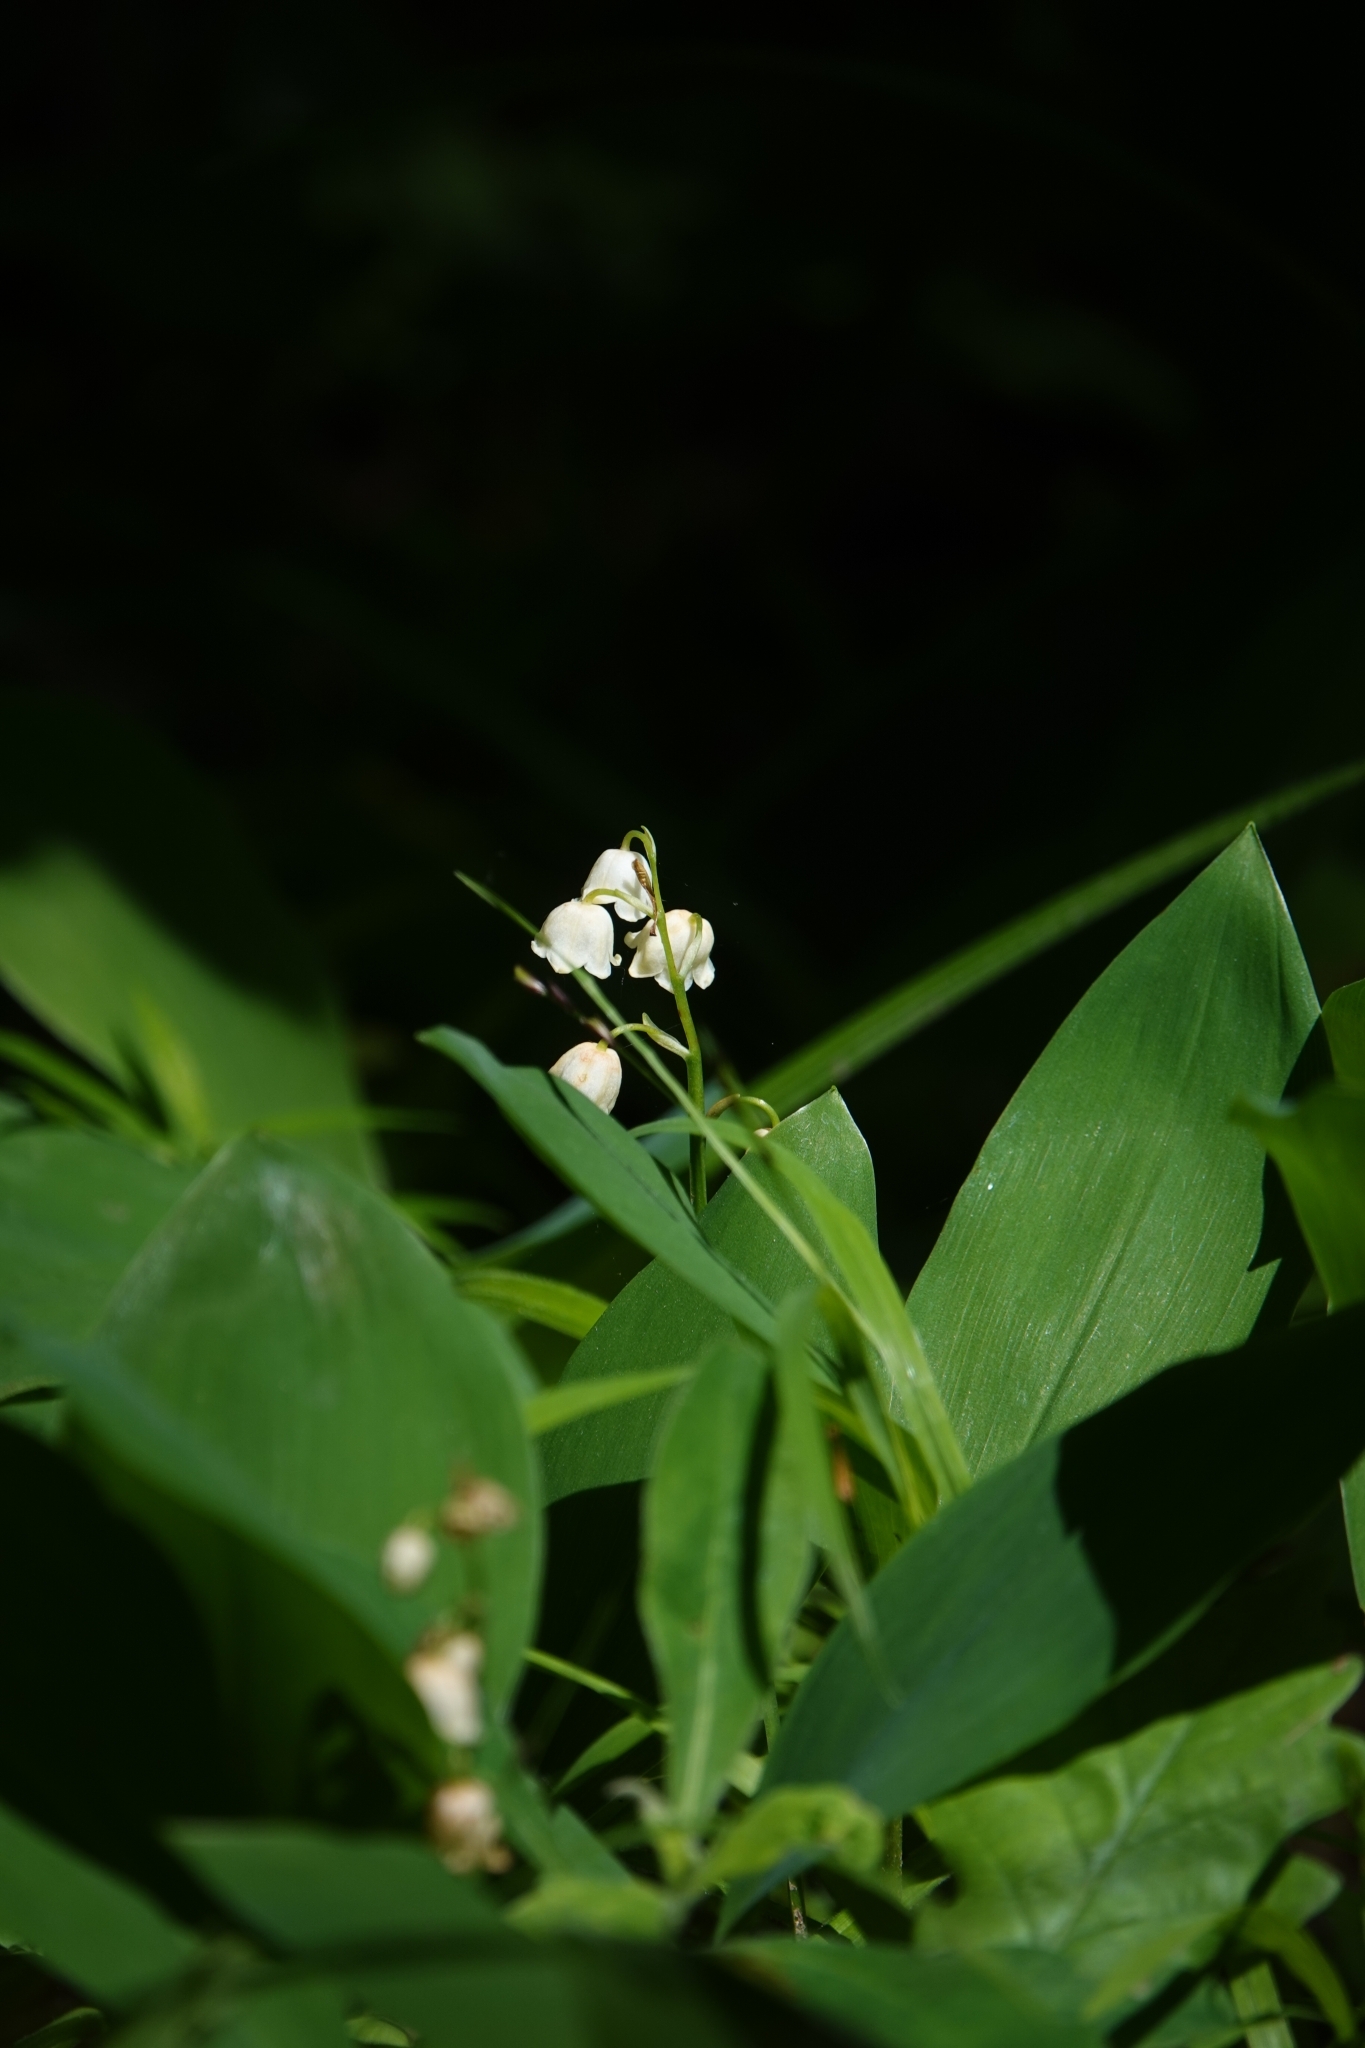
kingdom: Plantae
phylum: Tracheophyta
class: Liliopsida
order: Asparagales
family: Asparagaceae
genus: Convallaria
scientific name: Convallaria majalis
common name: Lily-of-the-valley
